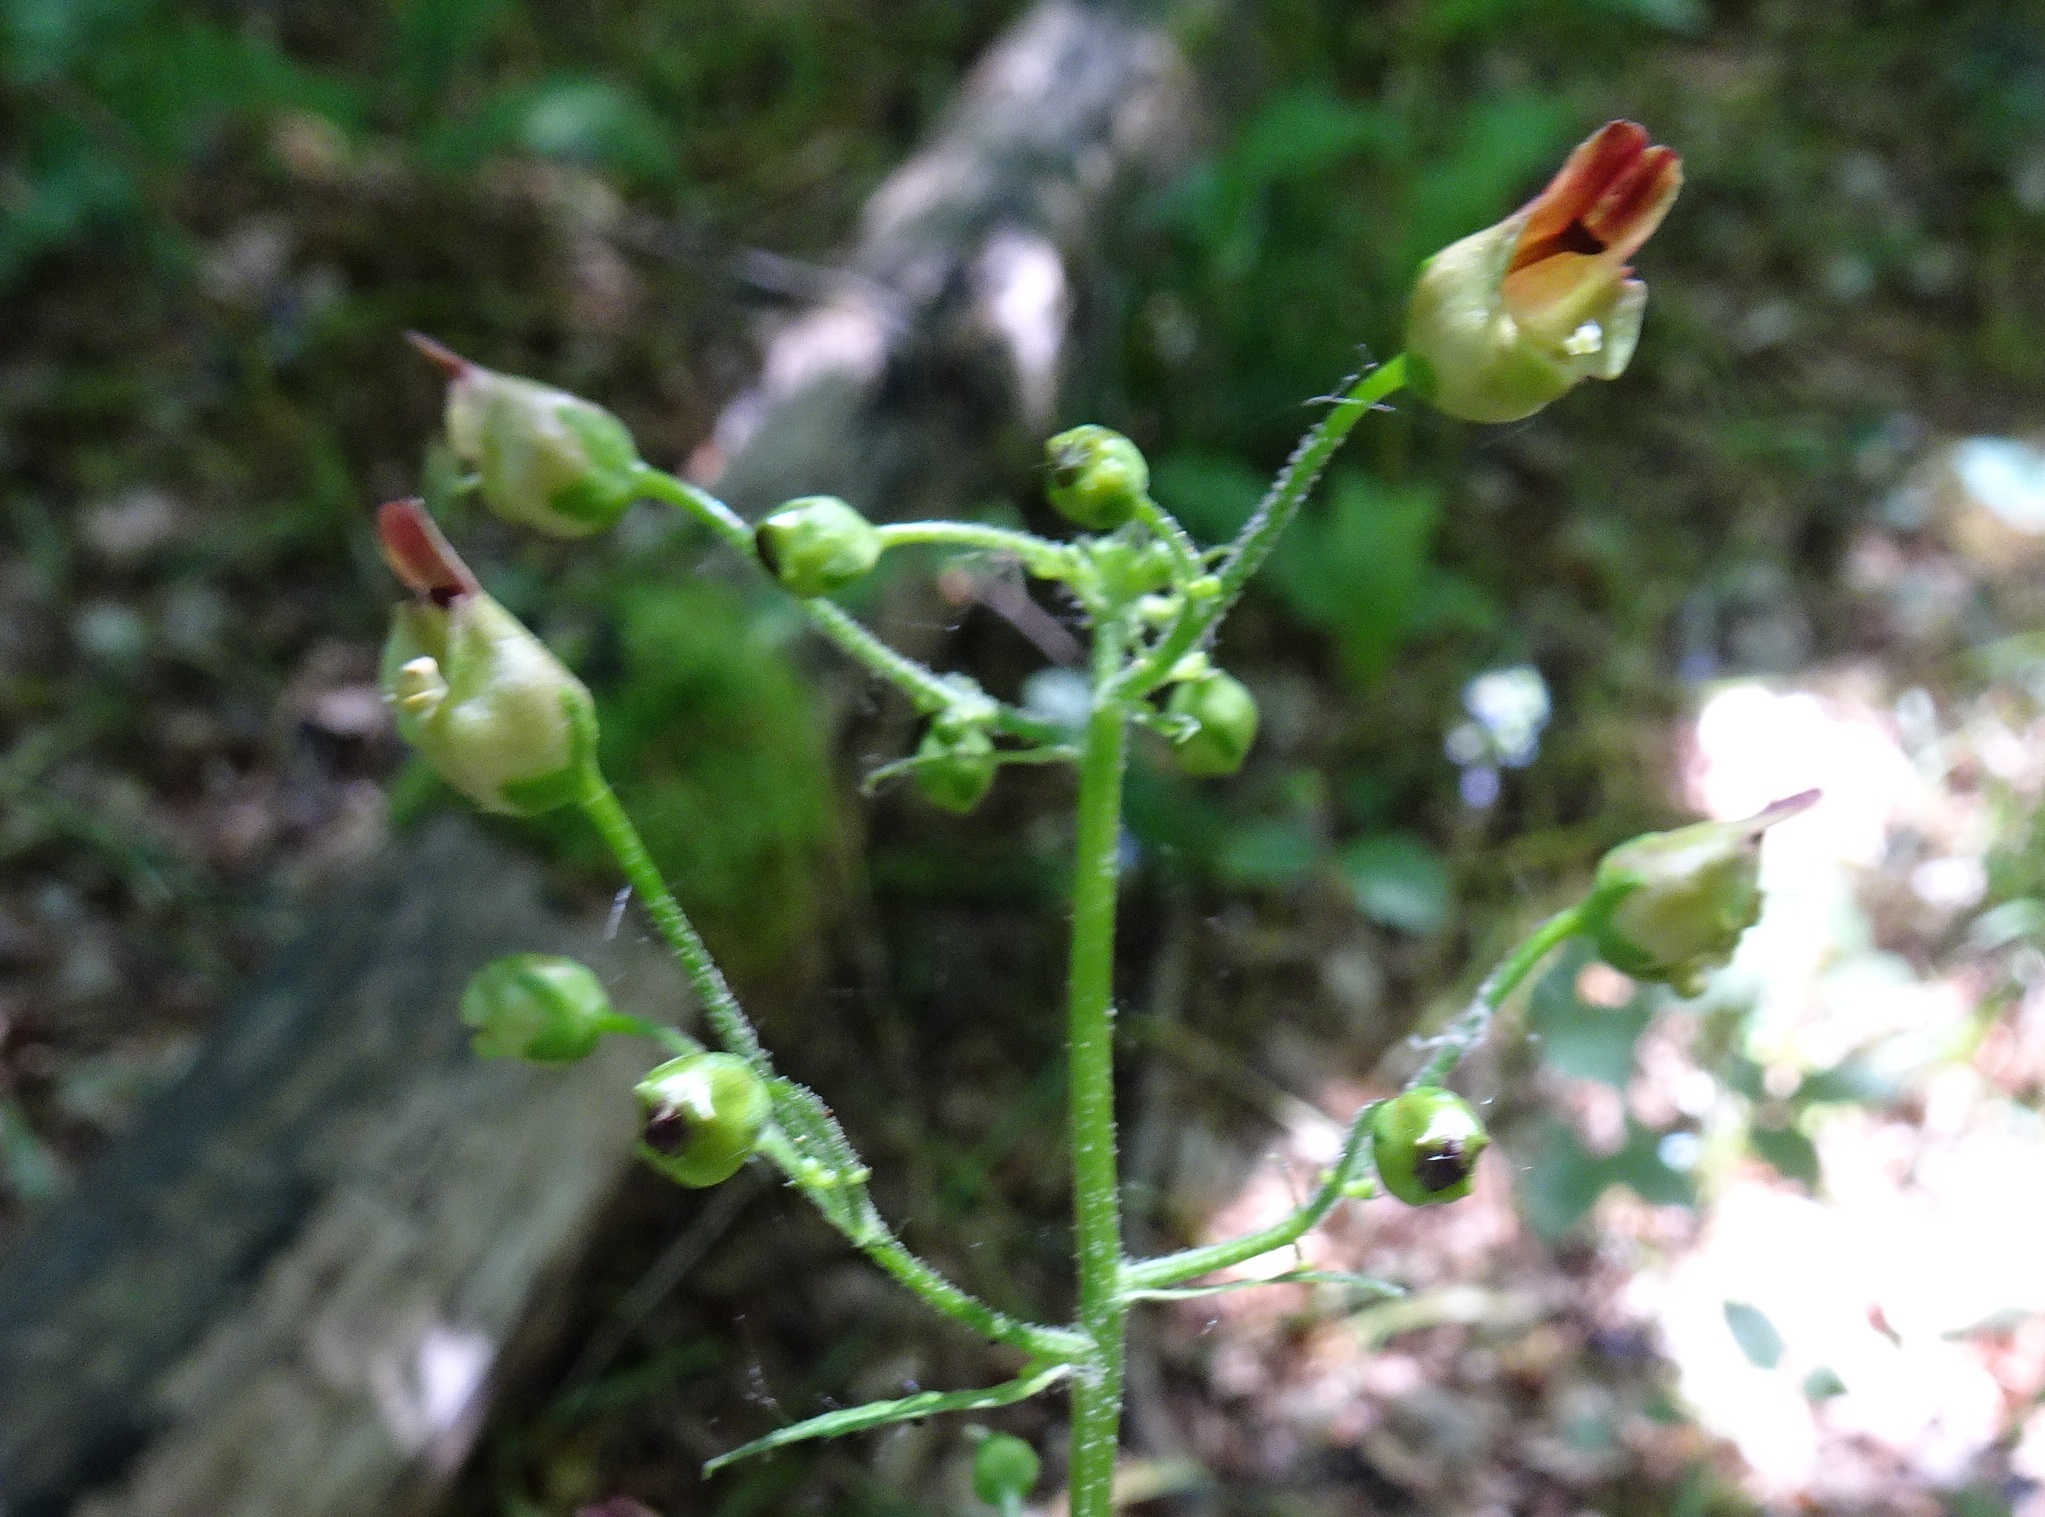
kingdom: Plantae
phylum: Tracheophyta
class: Magnoliopsida
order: Lamiales
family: Scrophulariaceae
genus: Scrophularia
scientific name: Scrophularia nodosa
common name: Common figwort
